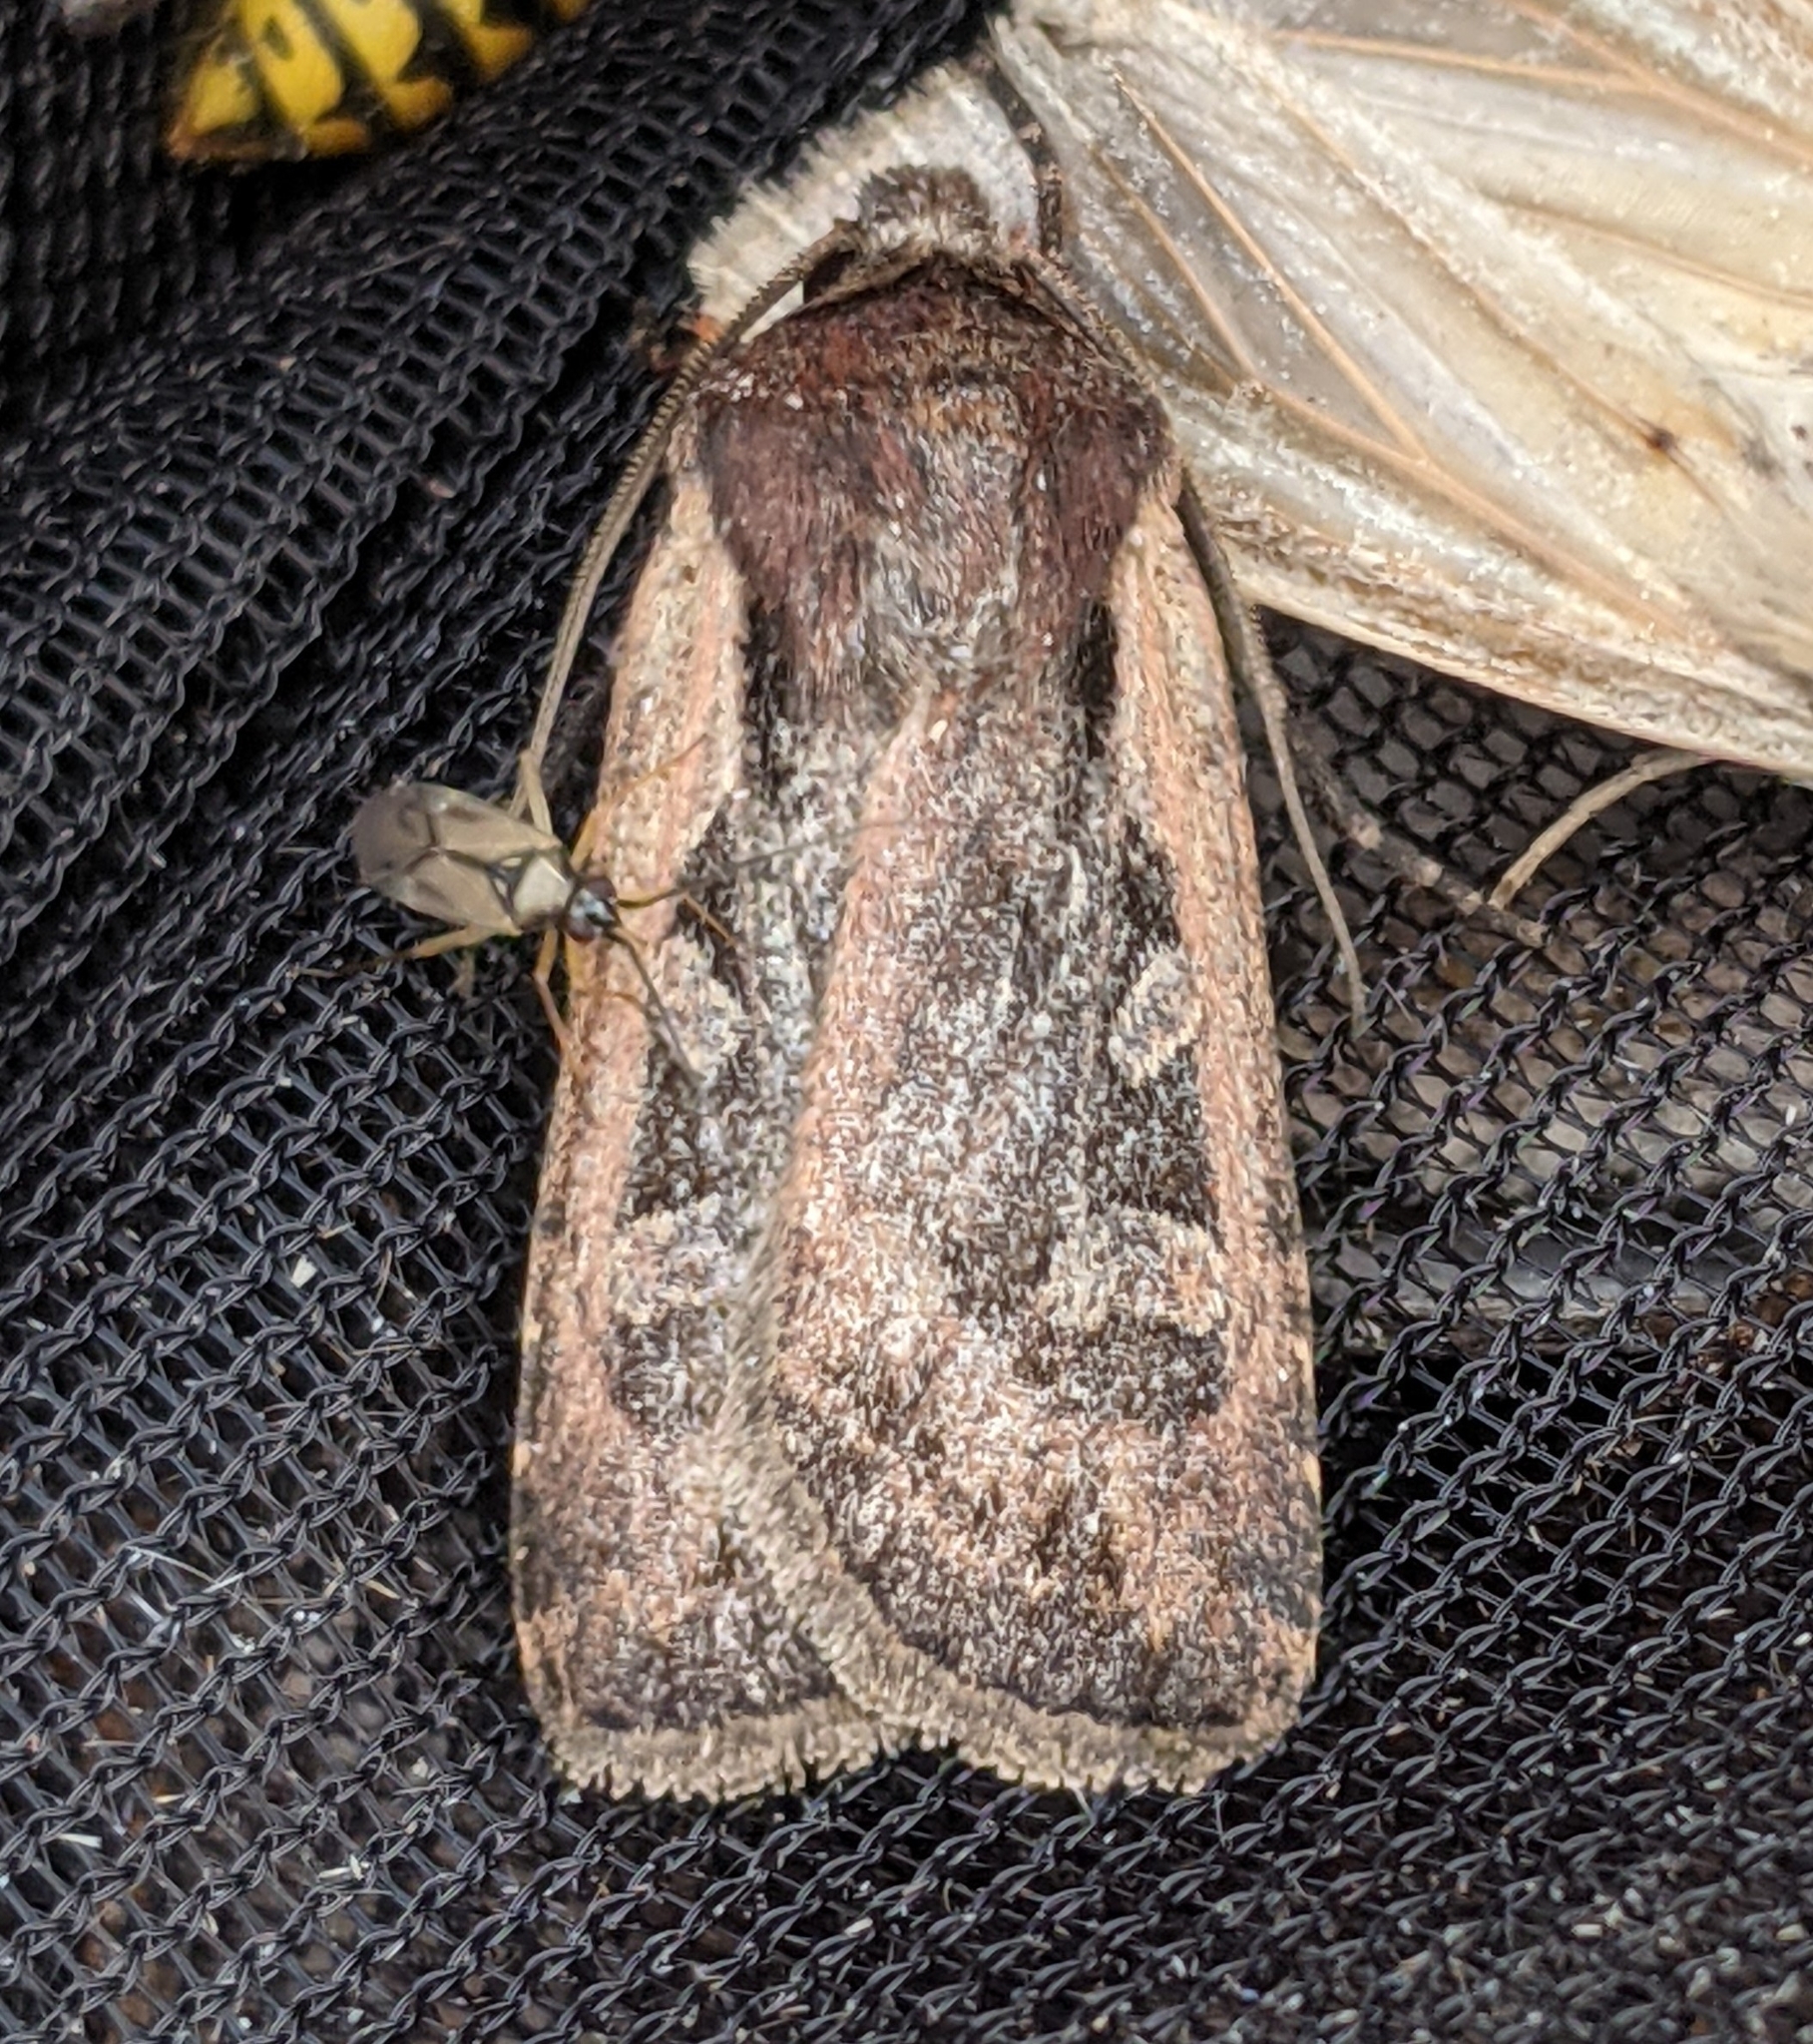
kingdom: Animalia
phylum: Arthropoda
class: Insecta
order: Lepidoptera
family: Noctuidae
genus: Euxoa
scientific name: Euxoa idahoensis
